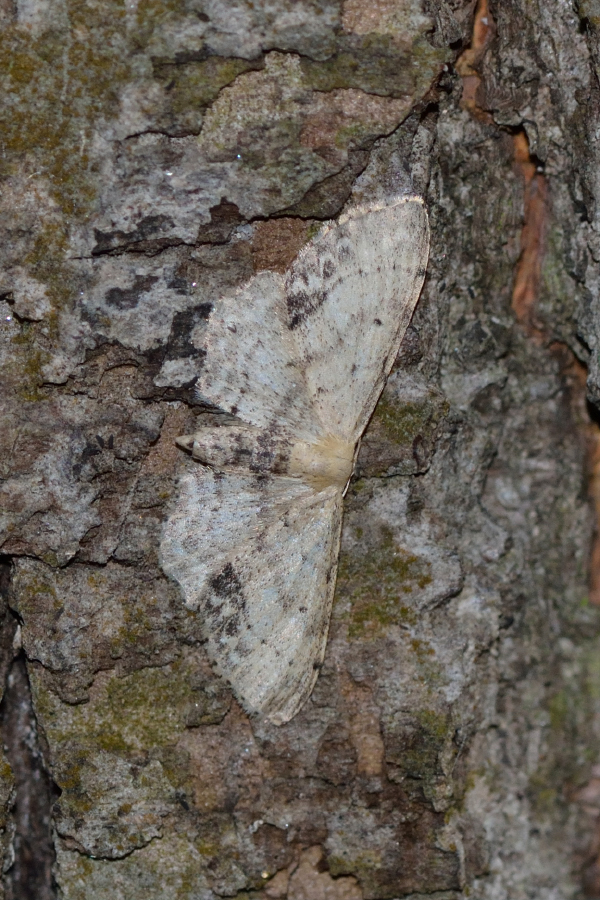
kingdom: Animalia
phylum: Arthropoda
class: Insecta
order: Lepidoptera
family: Geometridae
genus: Idaea
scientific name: Idaea dimidiata
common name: Single-dotted wave
